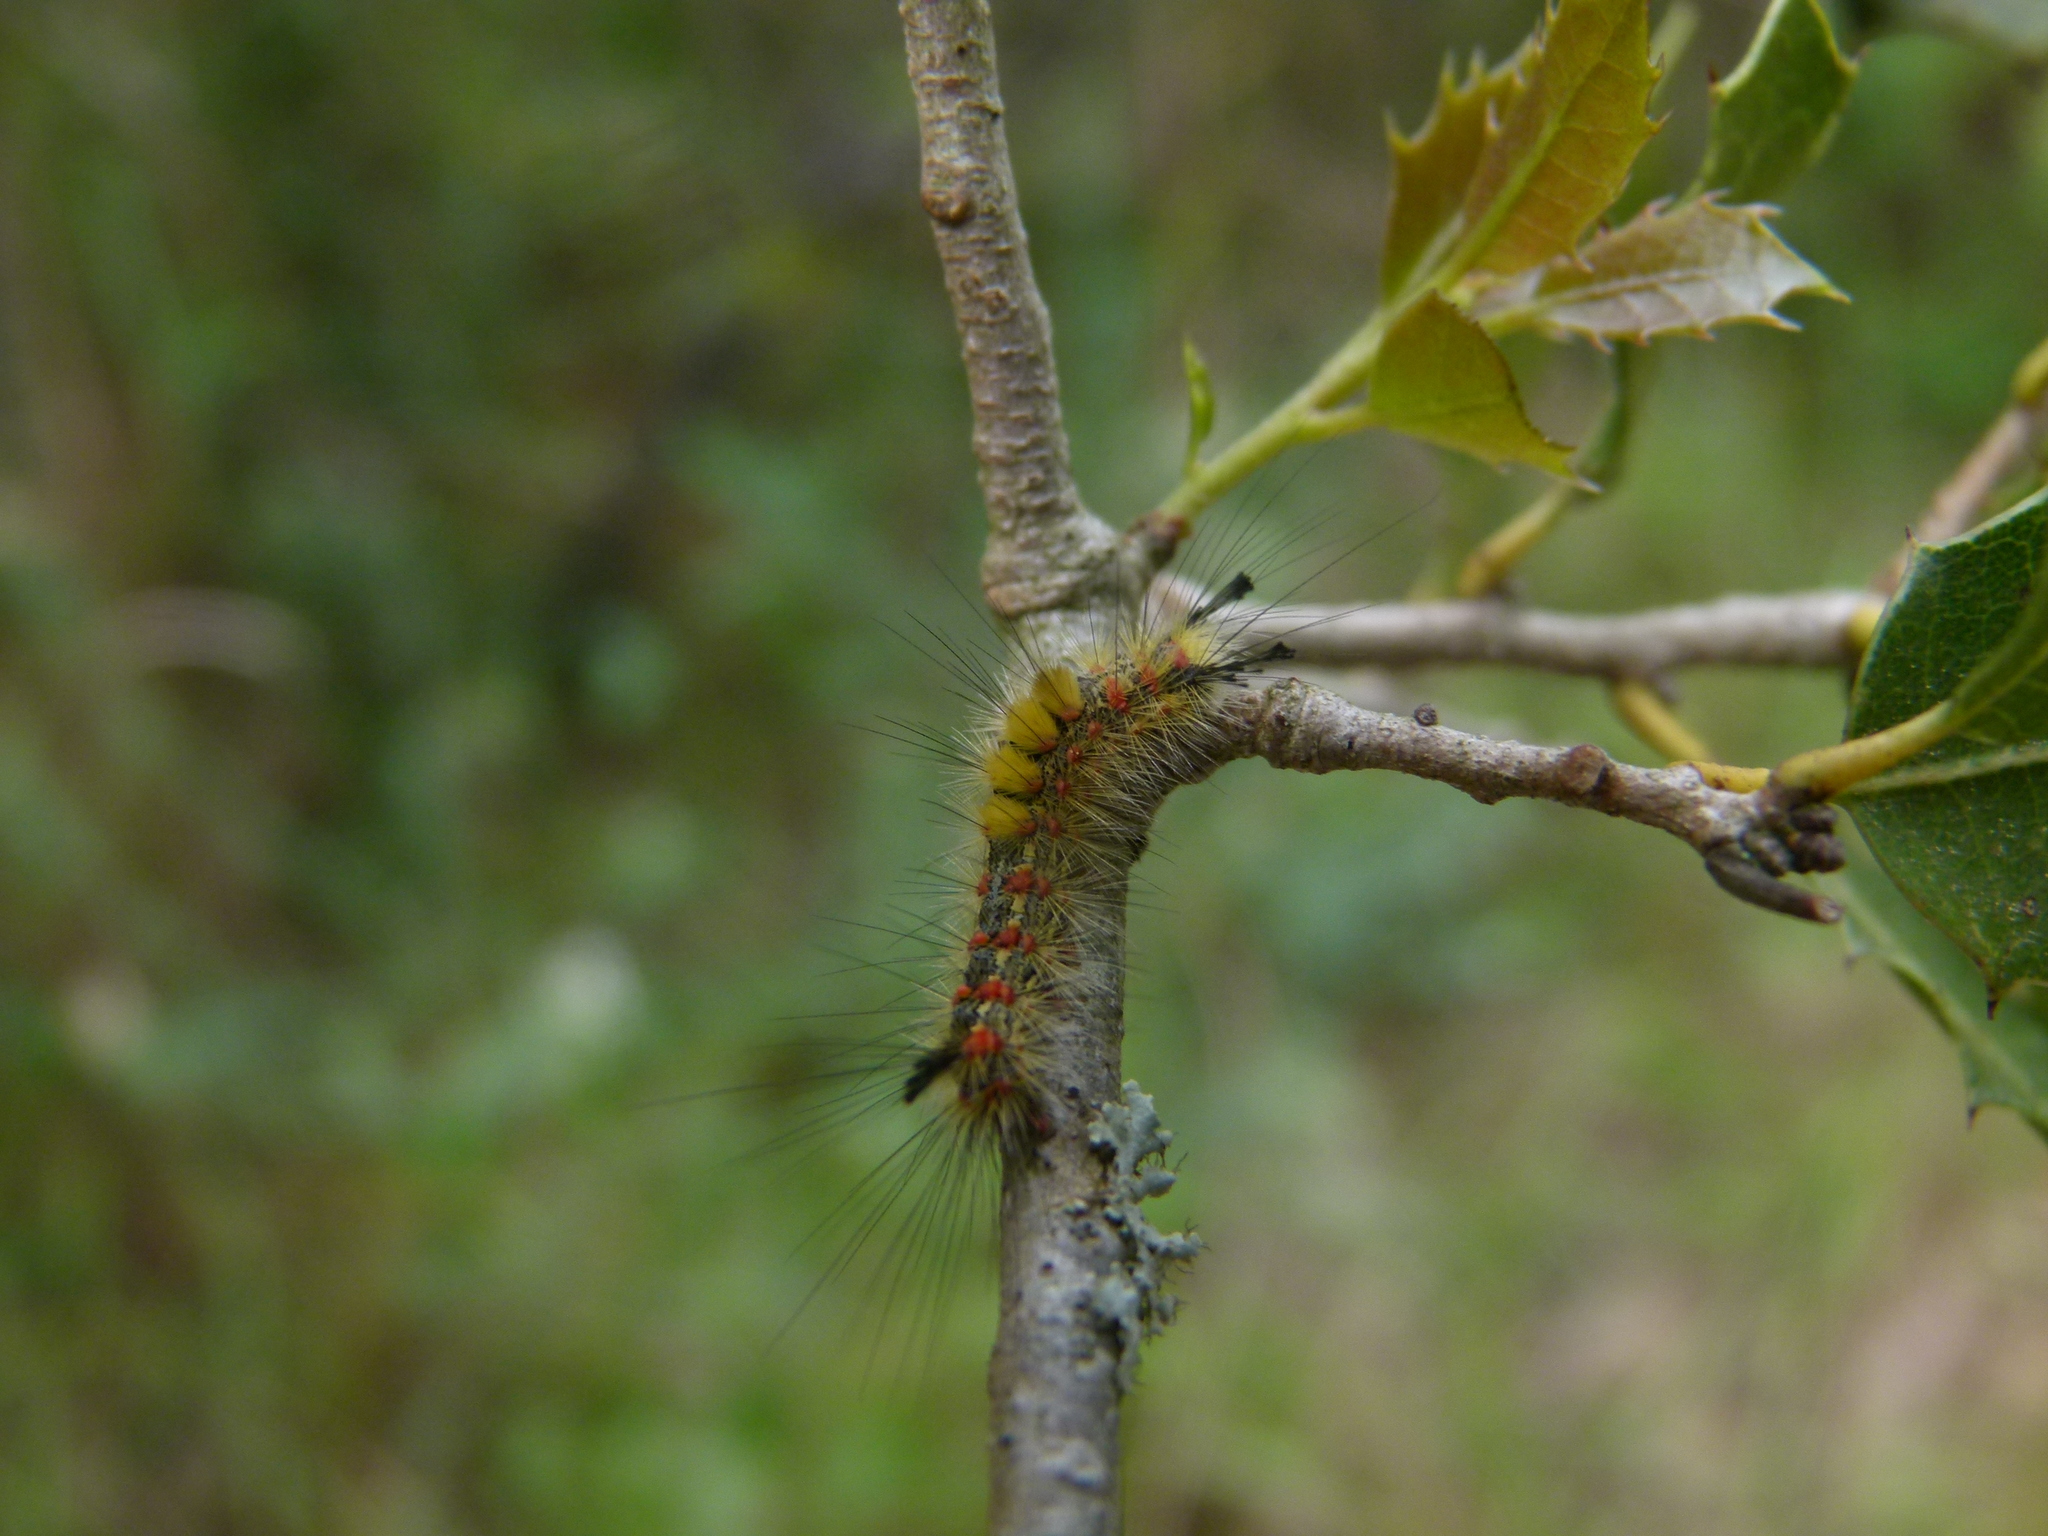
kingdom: Animalia
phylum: Arthropoda
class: Insecta
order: Lepidoptera
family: Erebidae
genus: Orgyia
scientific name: Orgyia antiqua
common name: Vapourer
